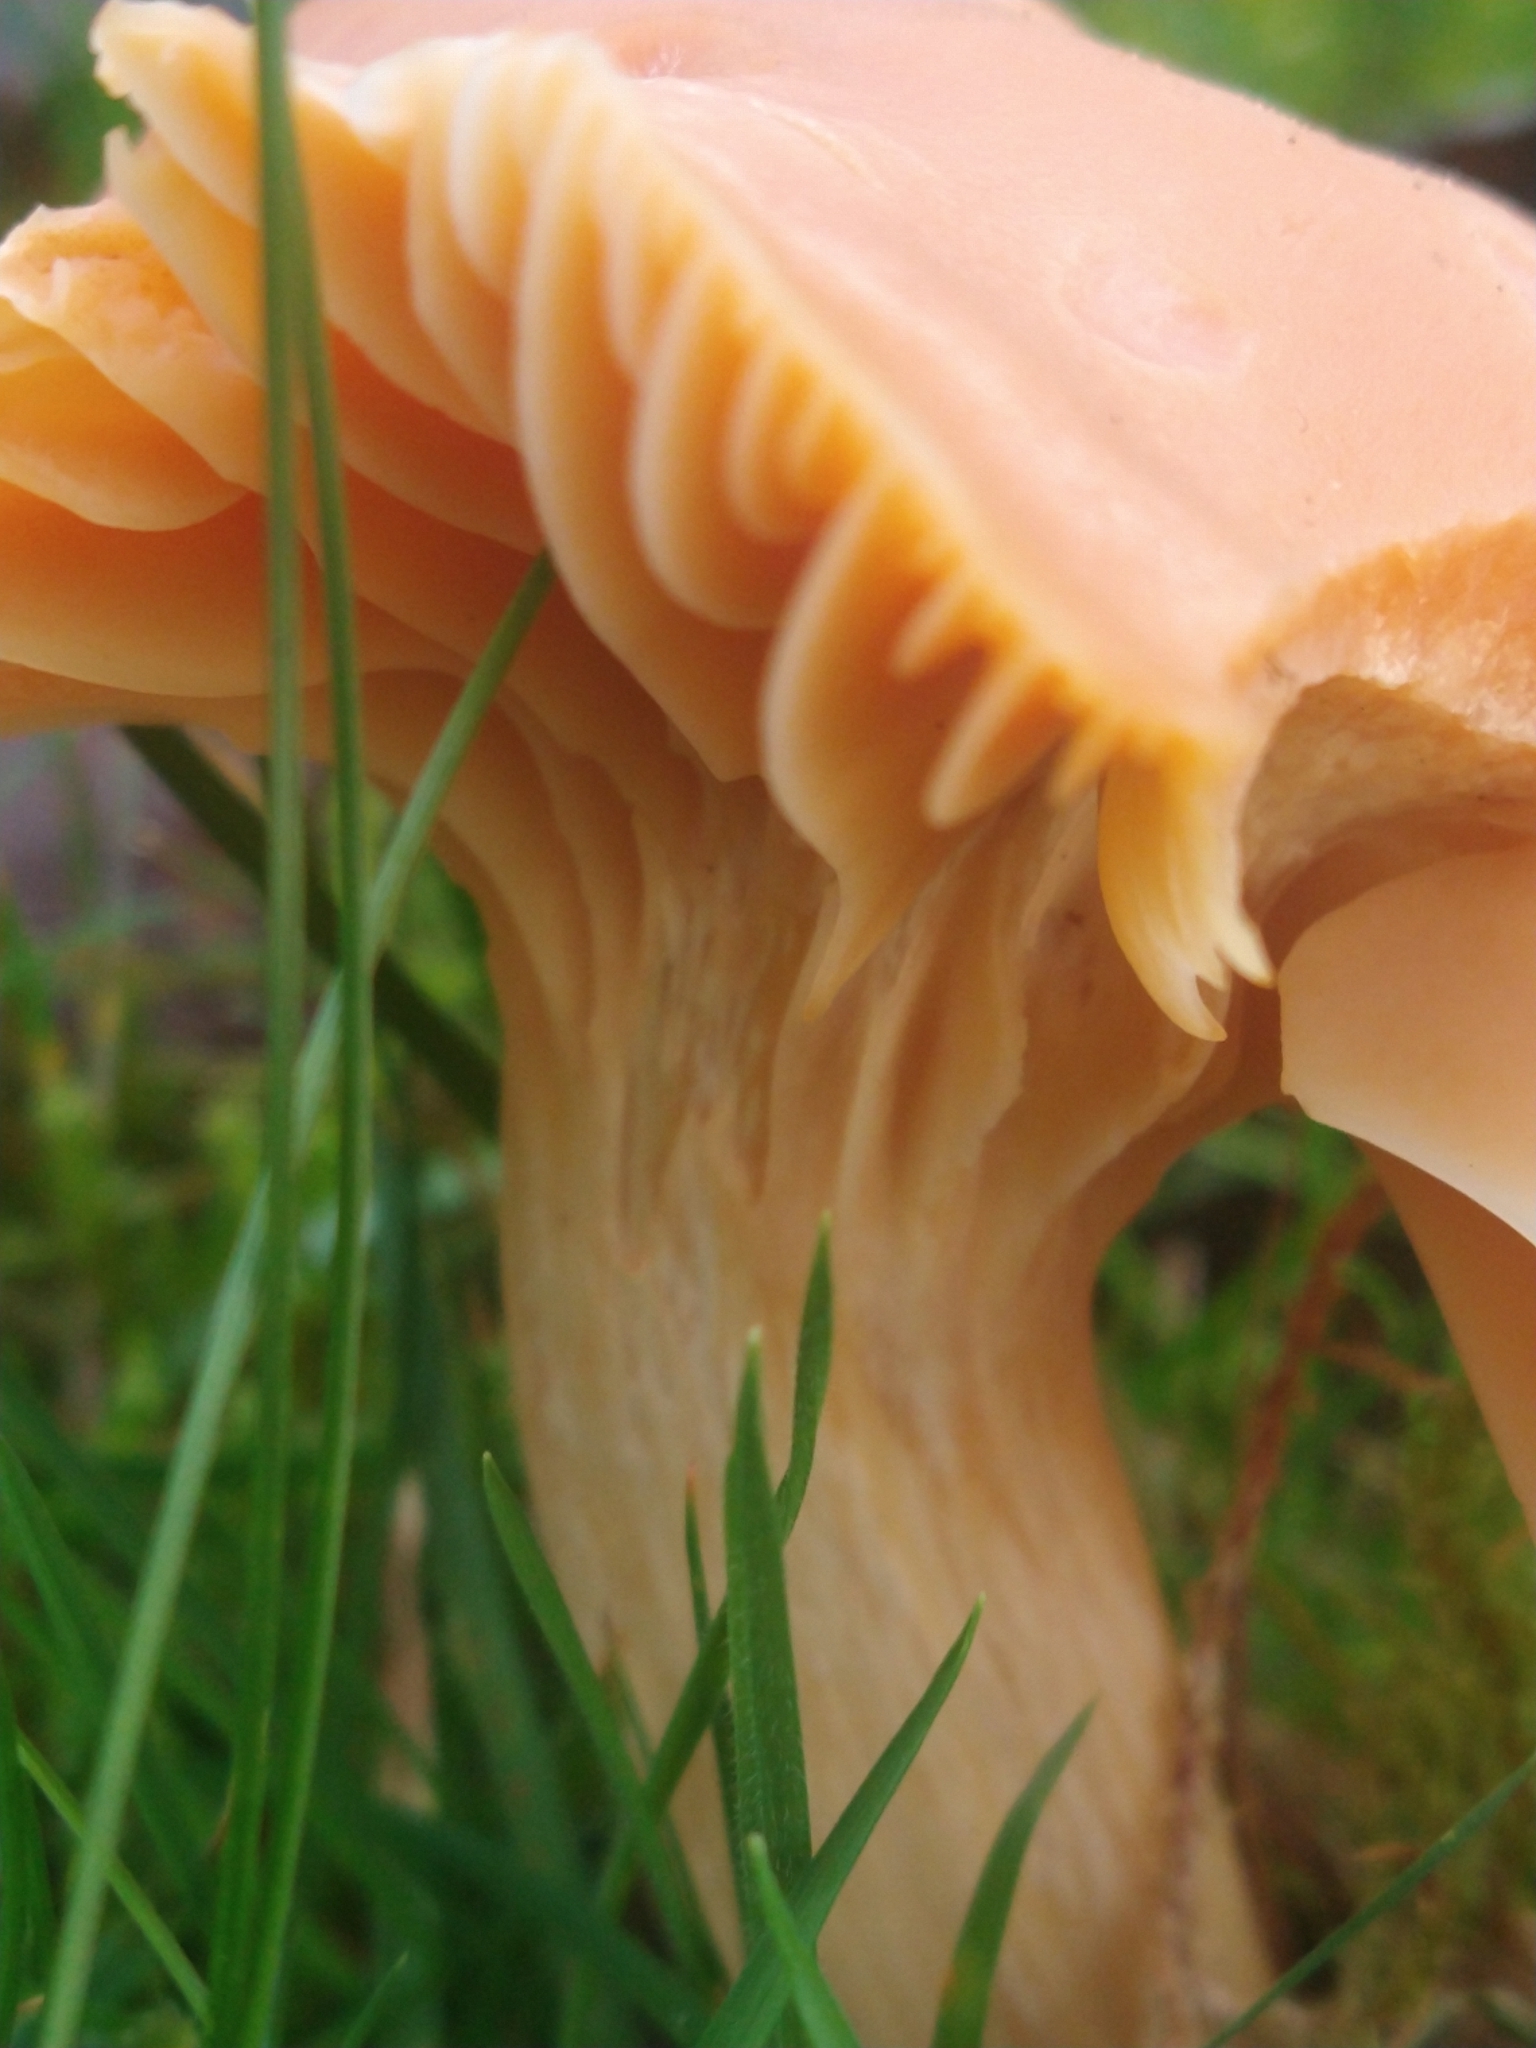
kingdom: Fungi
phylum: Basidiomycota
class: Agaricomycetes
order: Agaricales
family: Hygrophoraceae
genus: Cuphophyllus
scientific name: Cuphophyllus pratensis
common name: Meadow waxcap
